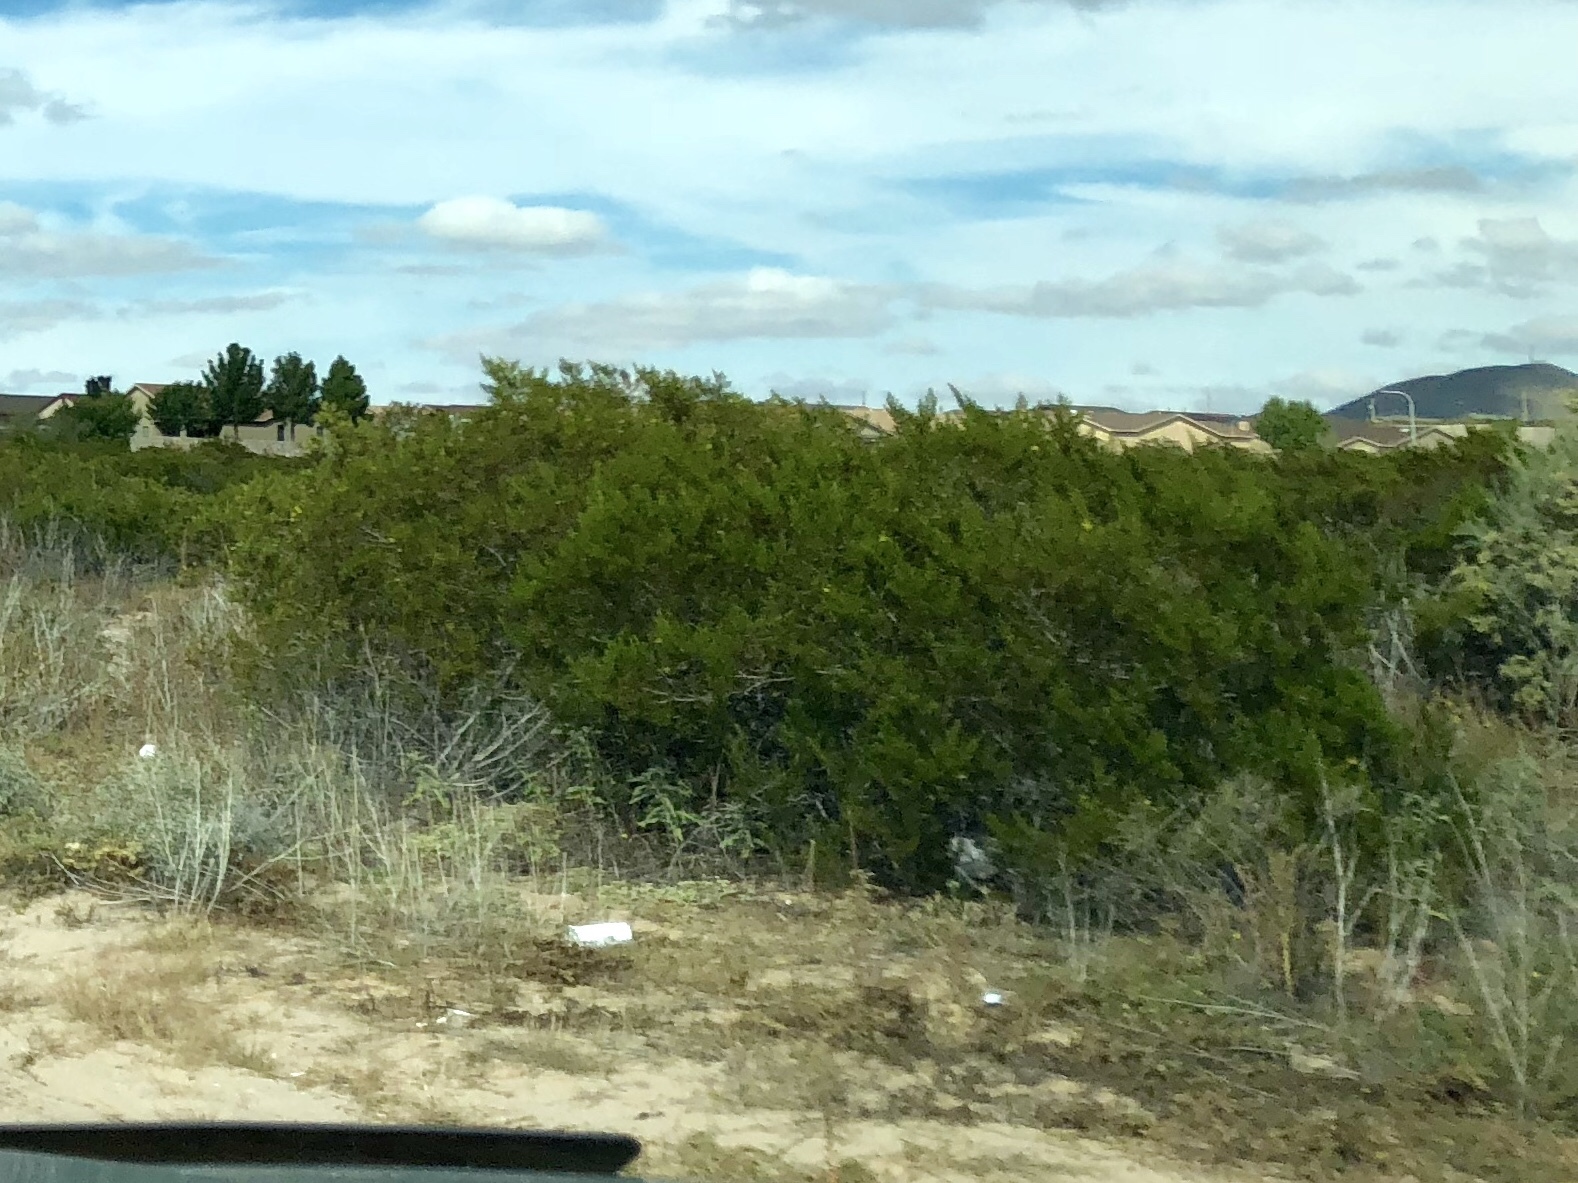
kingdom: Plantae
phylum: Tracheophyta
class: Magnoliopsida
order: Zygophyllales
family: Zygophyllaceae
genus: Larrea
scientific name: Larrea tridentata
